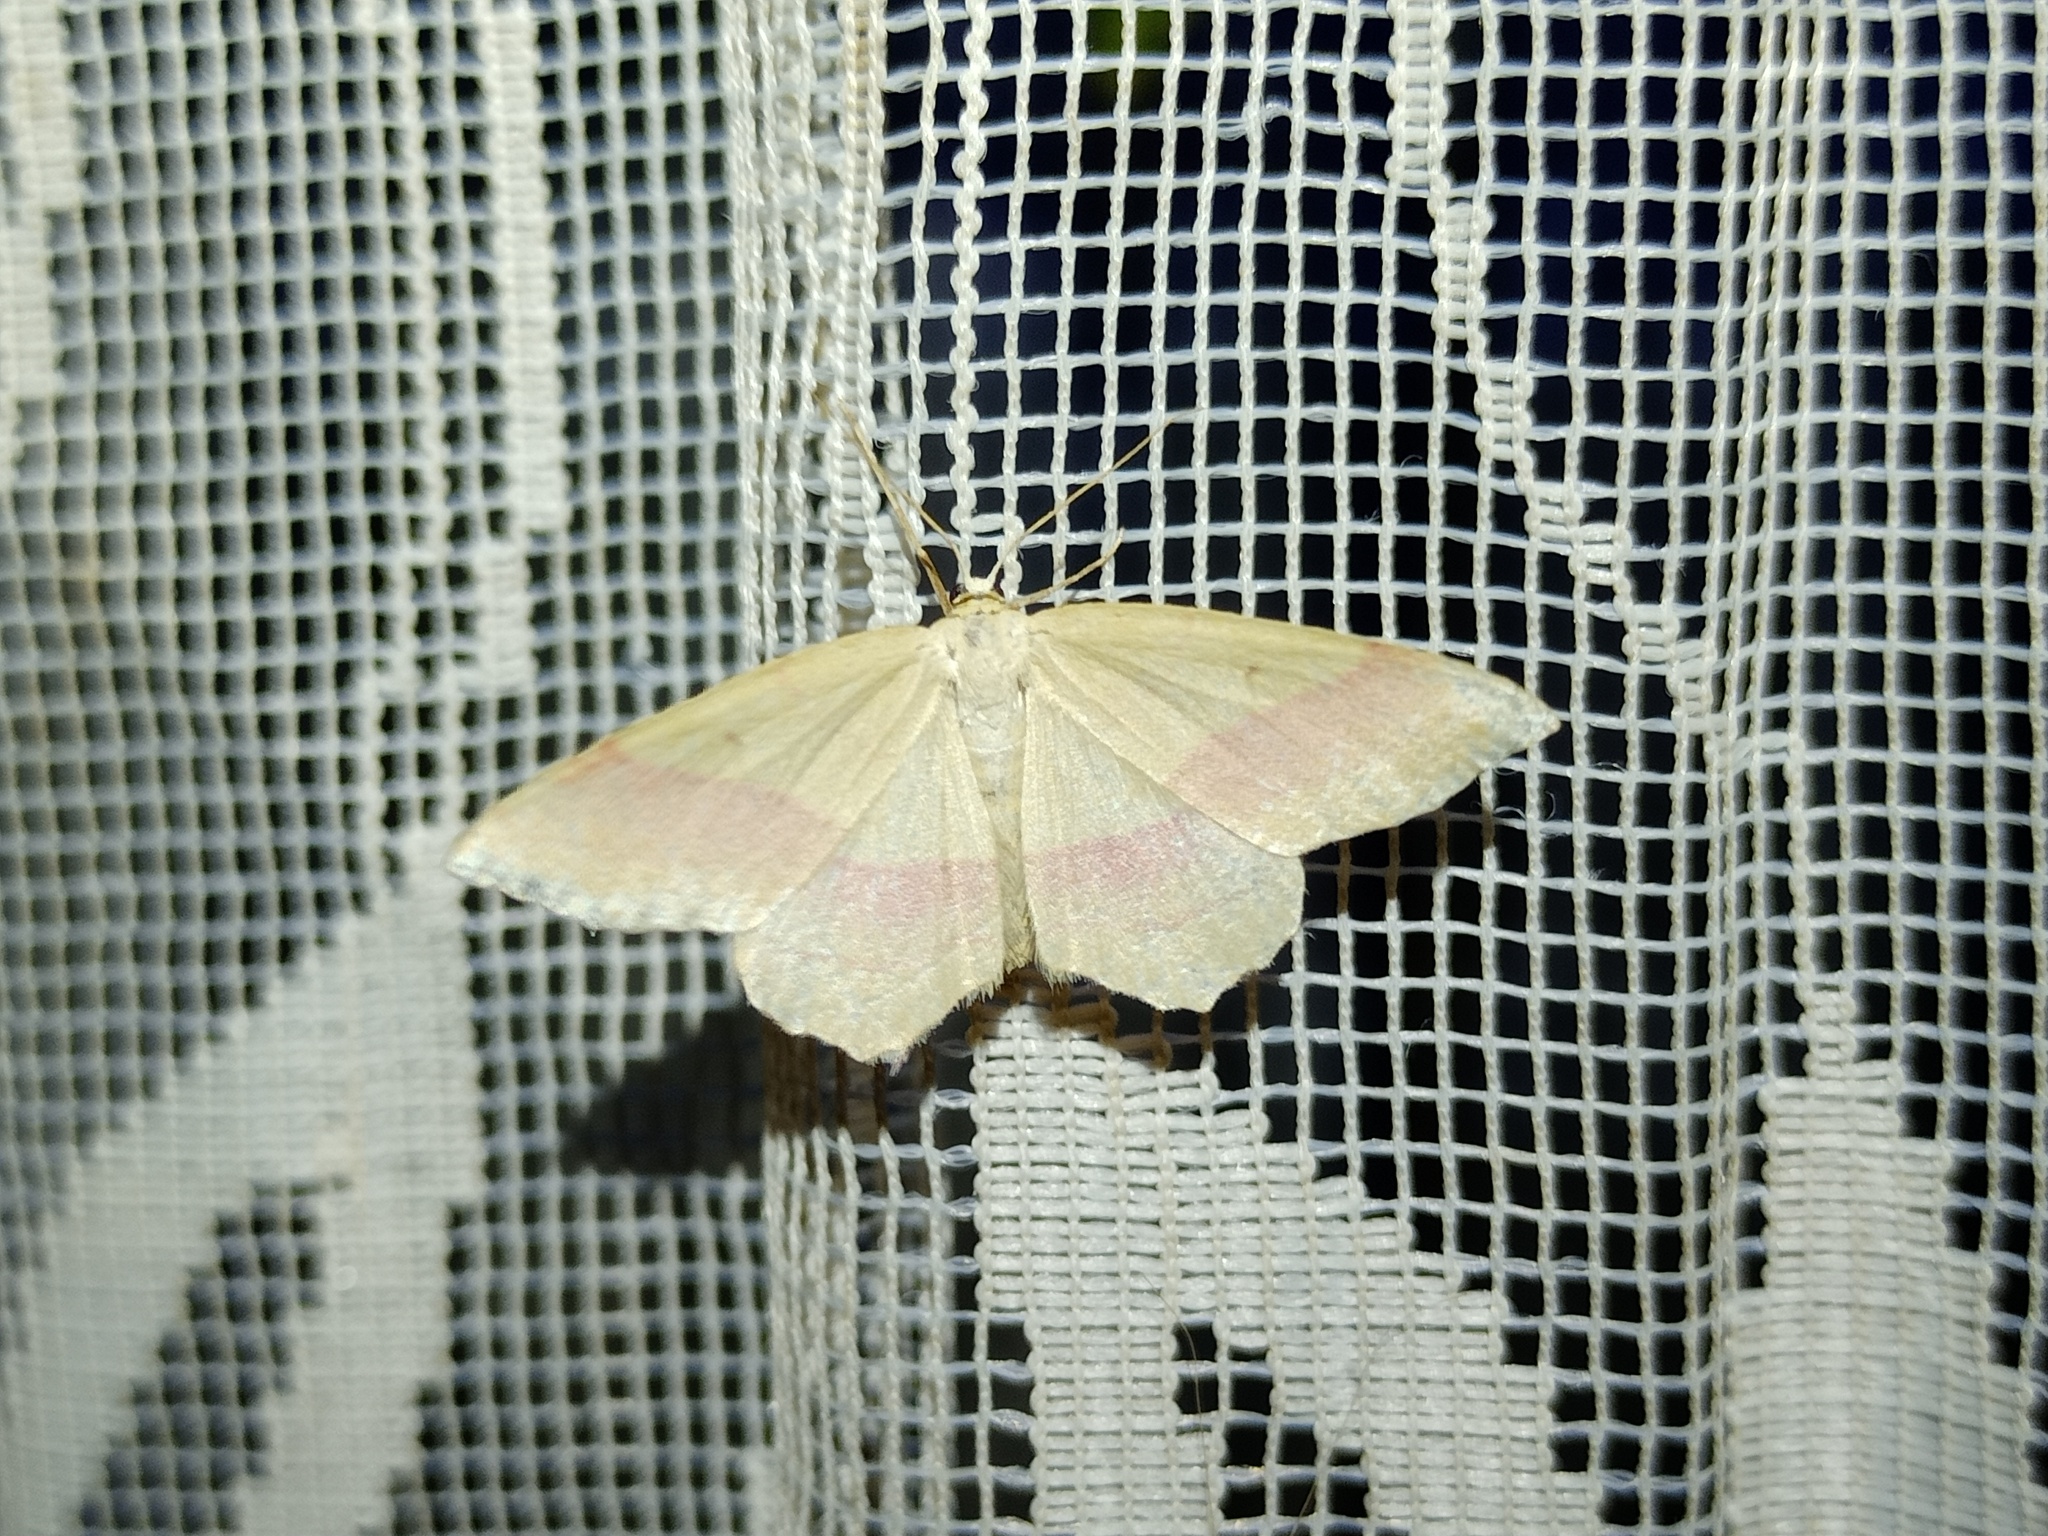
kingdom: Animalia
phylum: Arthropoda
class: Insecta
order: Lepidoptera
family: Geometridae
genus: Rhodostrophia
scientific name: Rhodostrophia vibicaria
